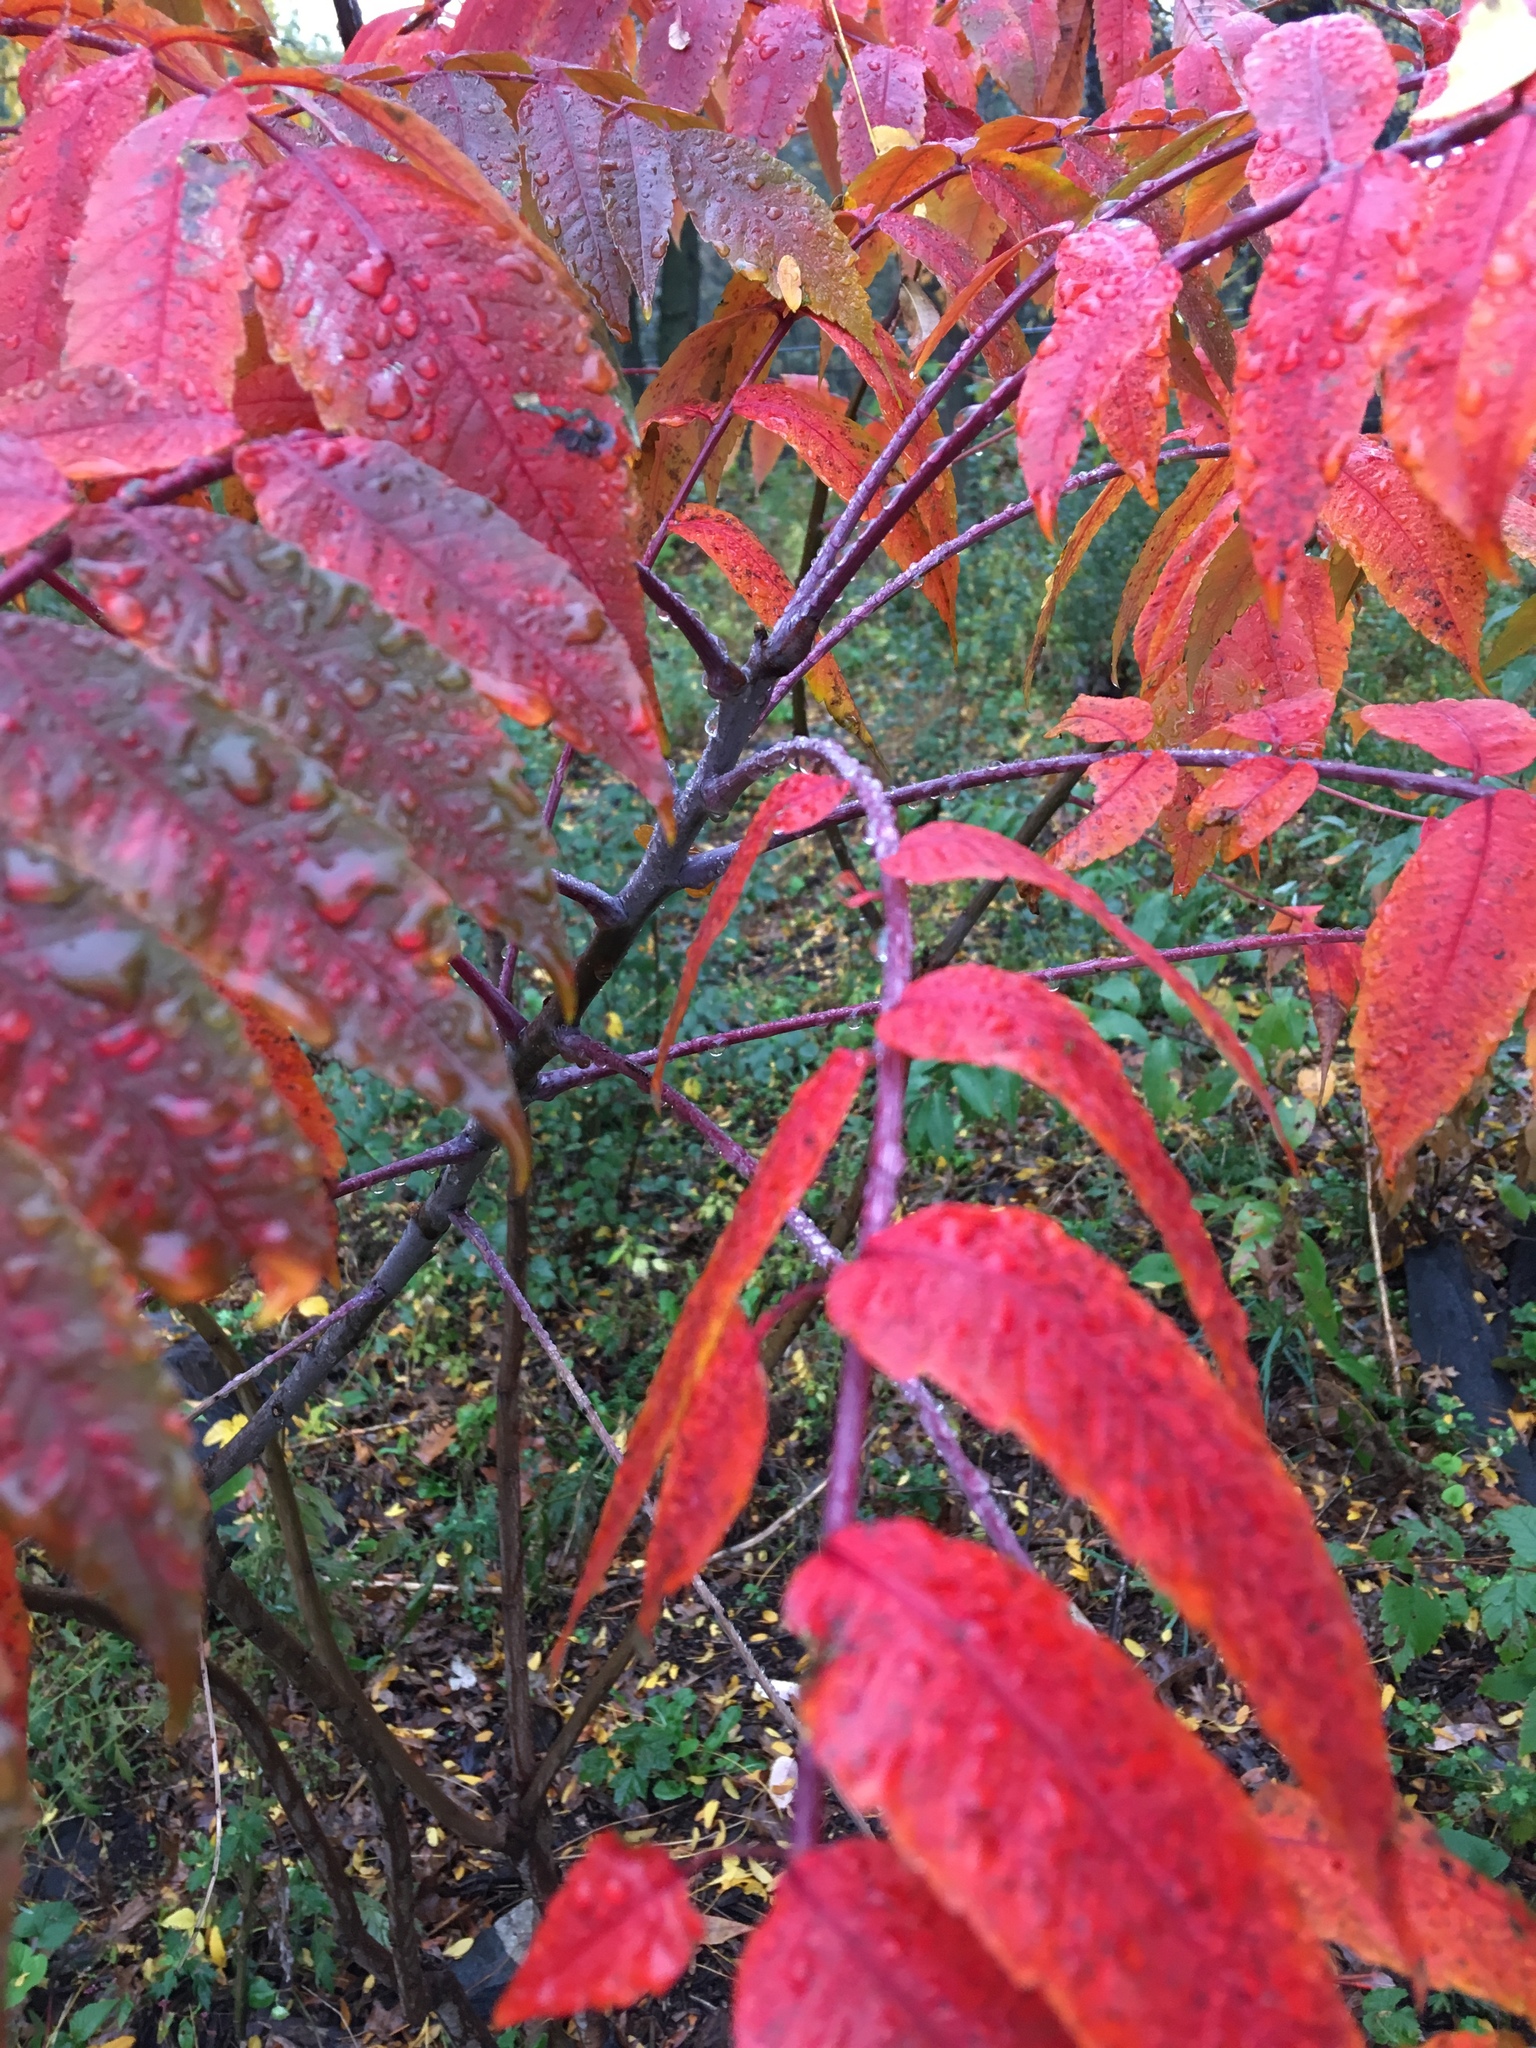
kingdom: Plantae
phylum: Tracheophyta
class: Magnoliopsida
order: Sapindales
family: Anacardiaceae
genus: Rhus
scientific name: Rhus glabra
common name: Scarlet sumac
